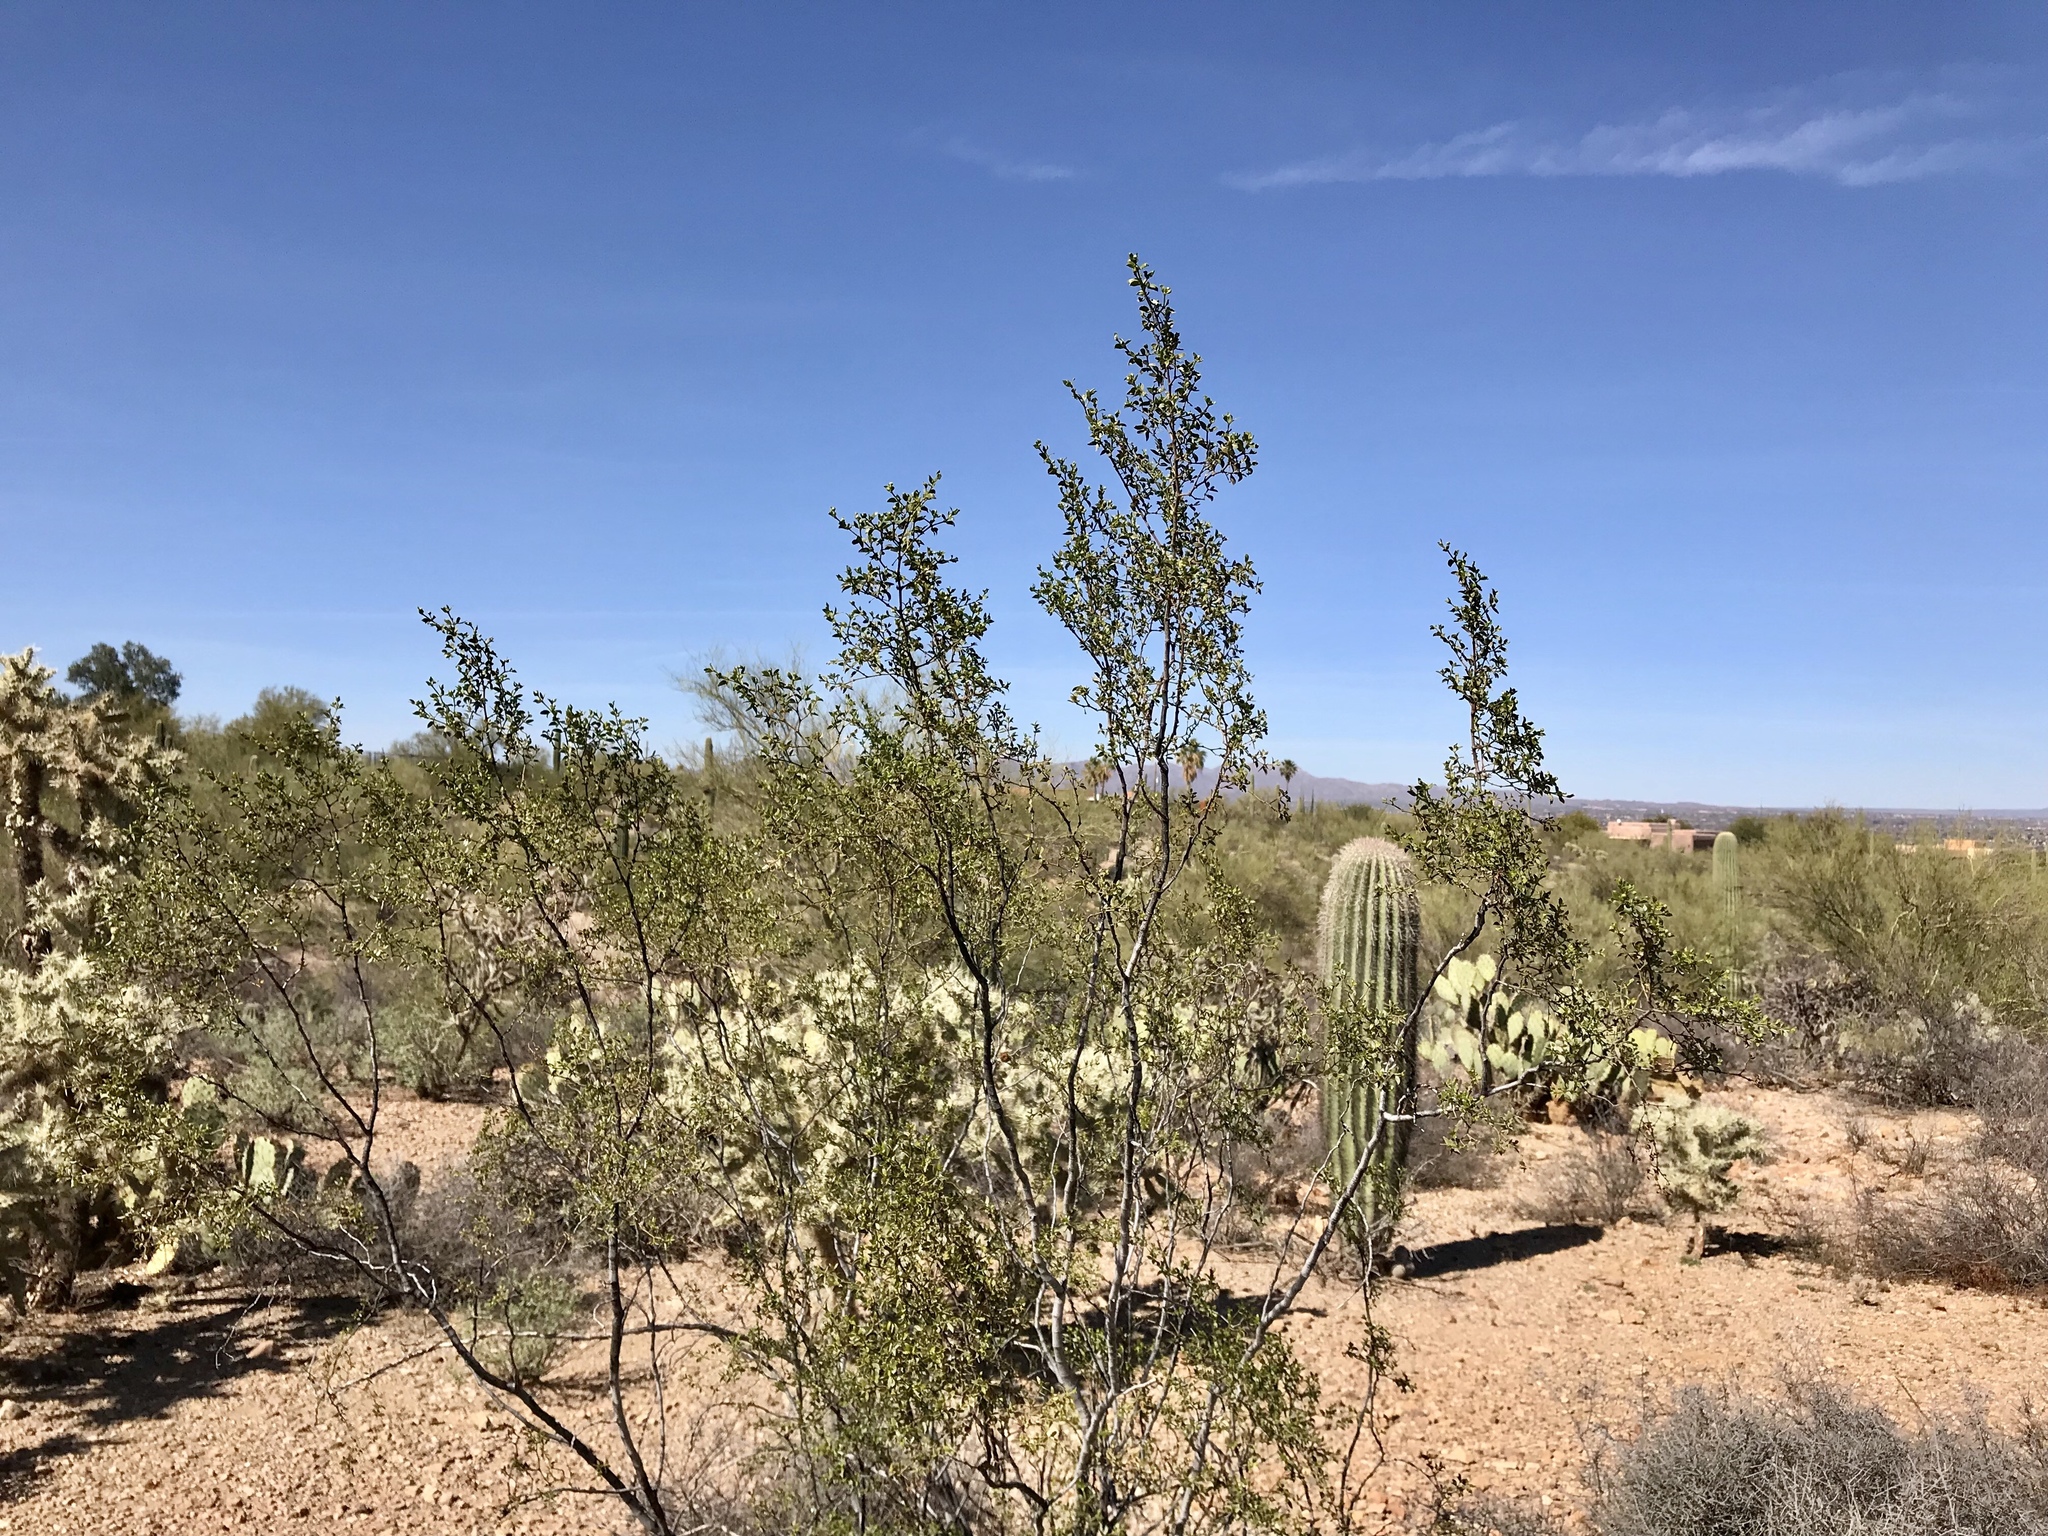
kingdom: Plantae
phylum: Tracheophyta
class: Magnoliopsida
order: Zygophyllales
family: Zygophyllaceae
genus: Larrea
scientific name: Larrea tridentata
